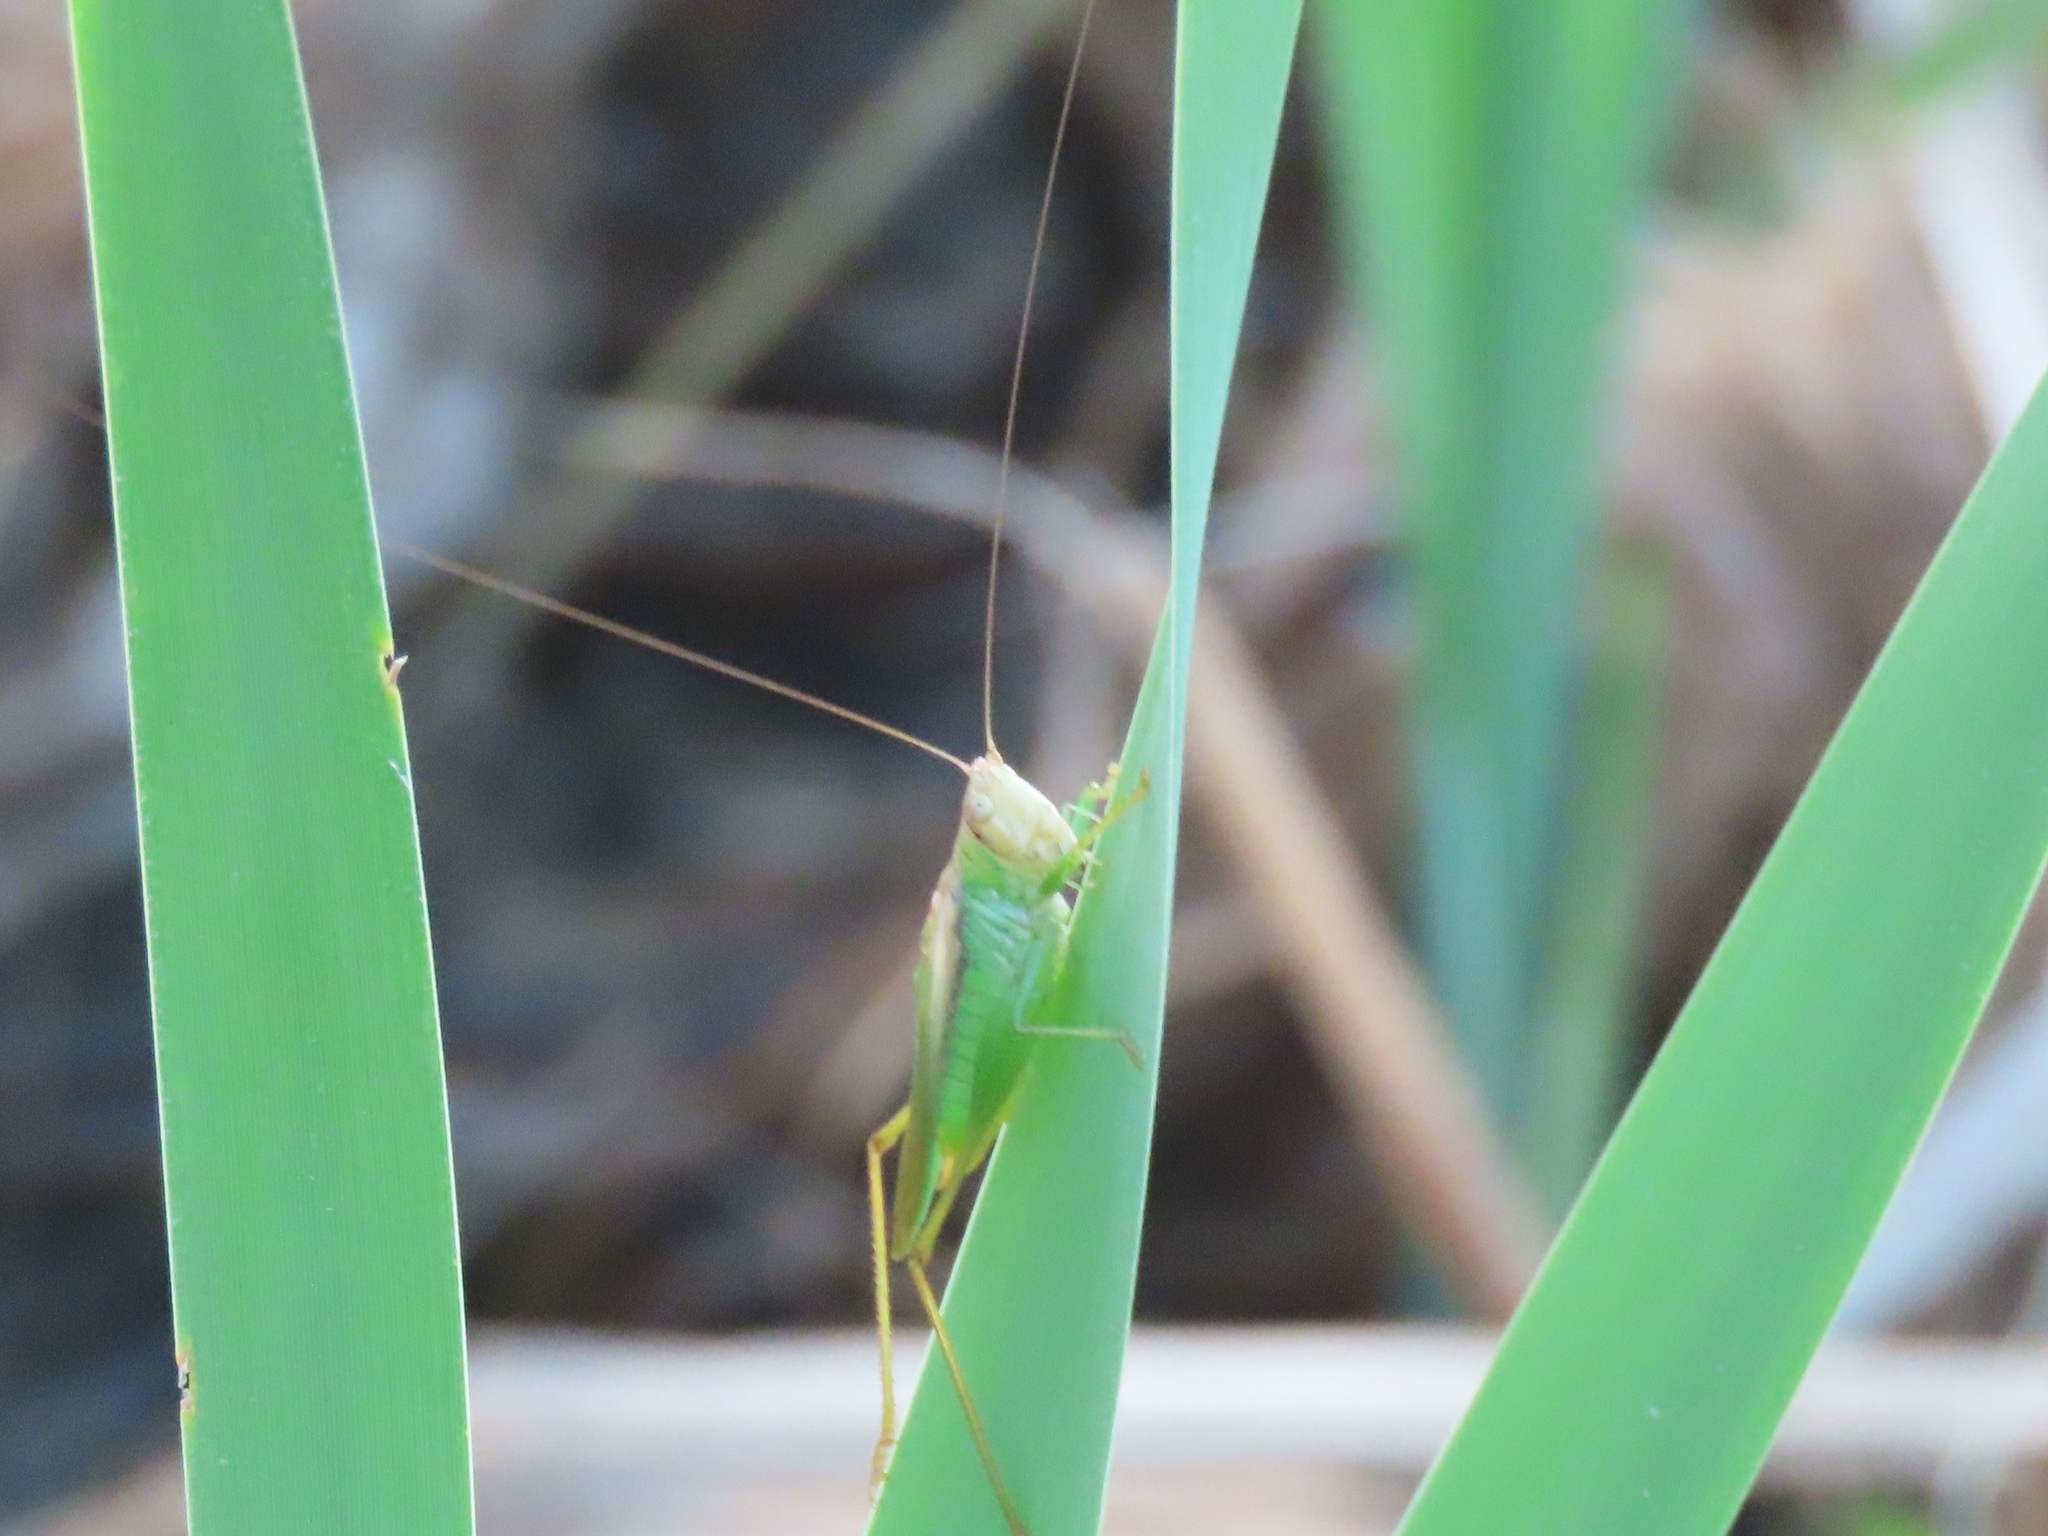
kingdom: Animalia
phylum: Arthropoda
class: Insecta
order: Orthoptera
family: Tettigoniidae
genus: Orchelimum
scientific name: Orchelimum agilis
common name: Agile meadow grasshopper
